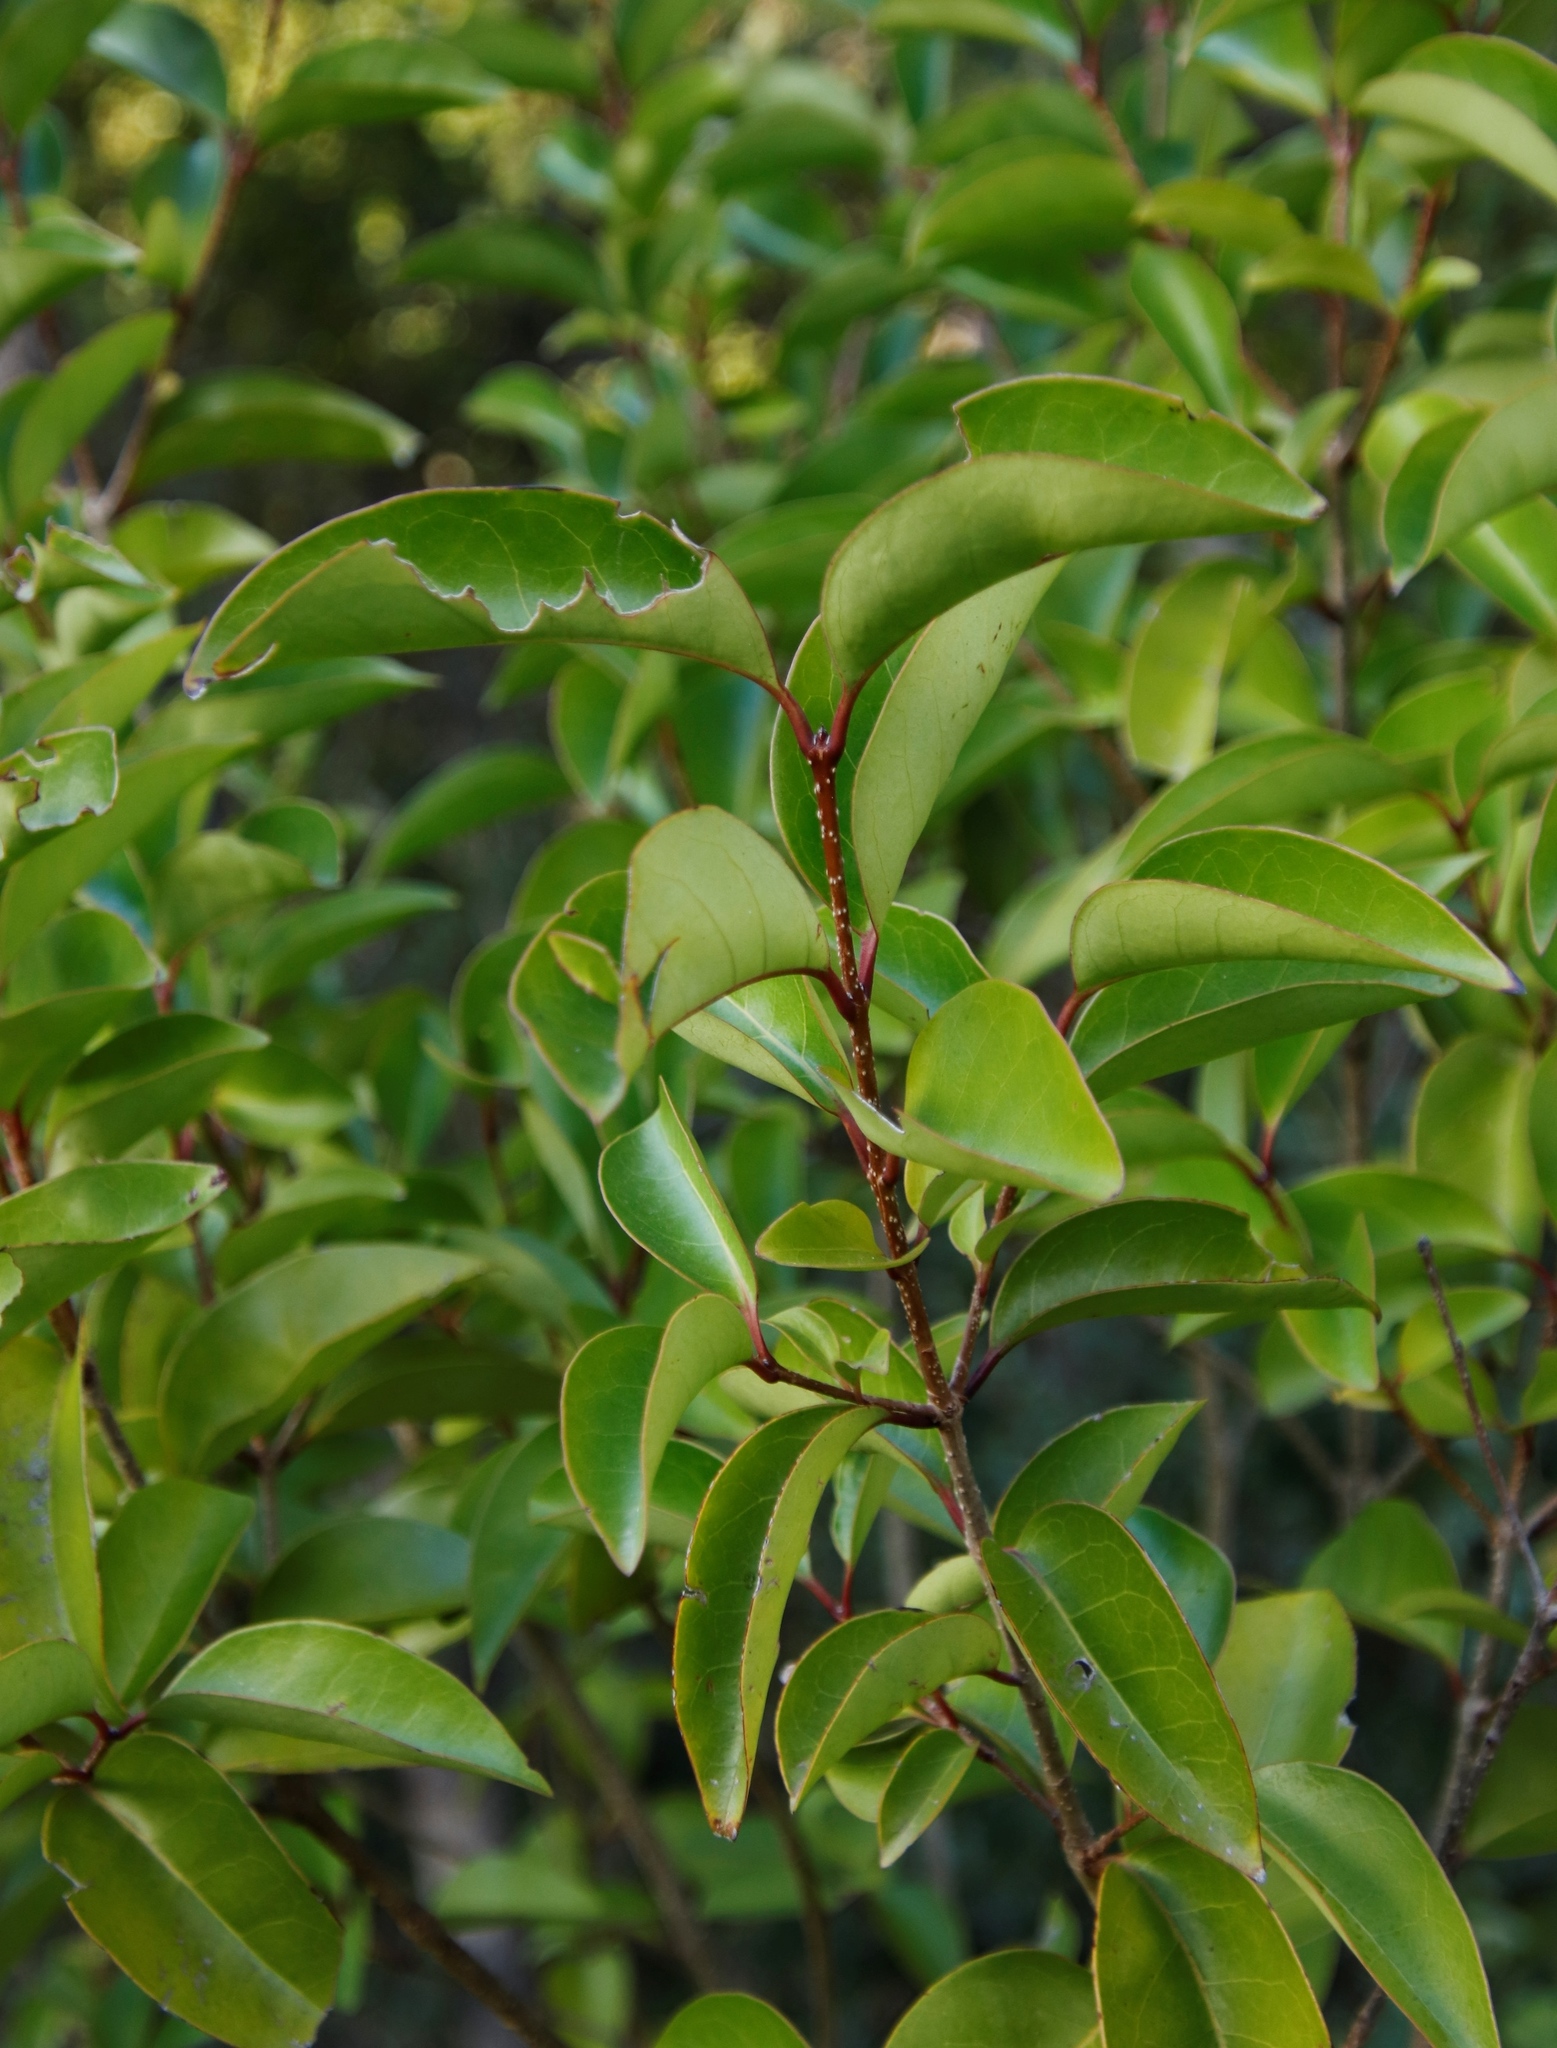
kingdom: Plantae
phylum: Tracheophyta
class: Magnoliopsida
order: Lamiales
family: Oleaceae
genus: Ligustrum
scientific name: Ligustrum lucidum
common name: Glossy privet
